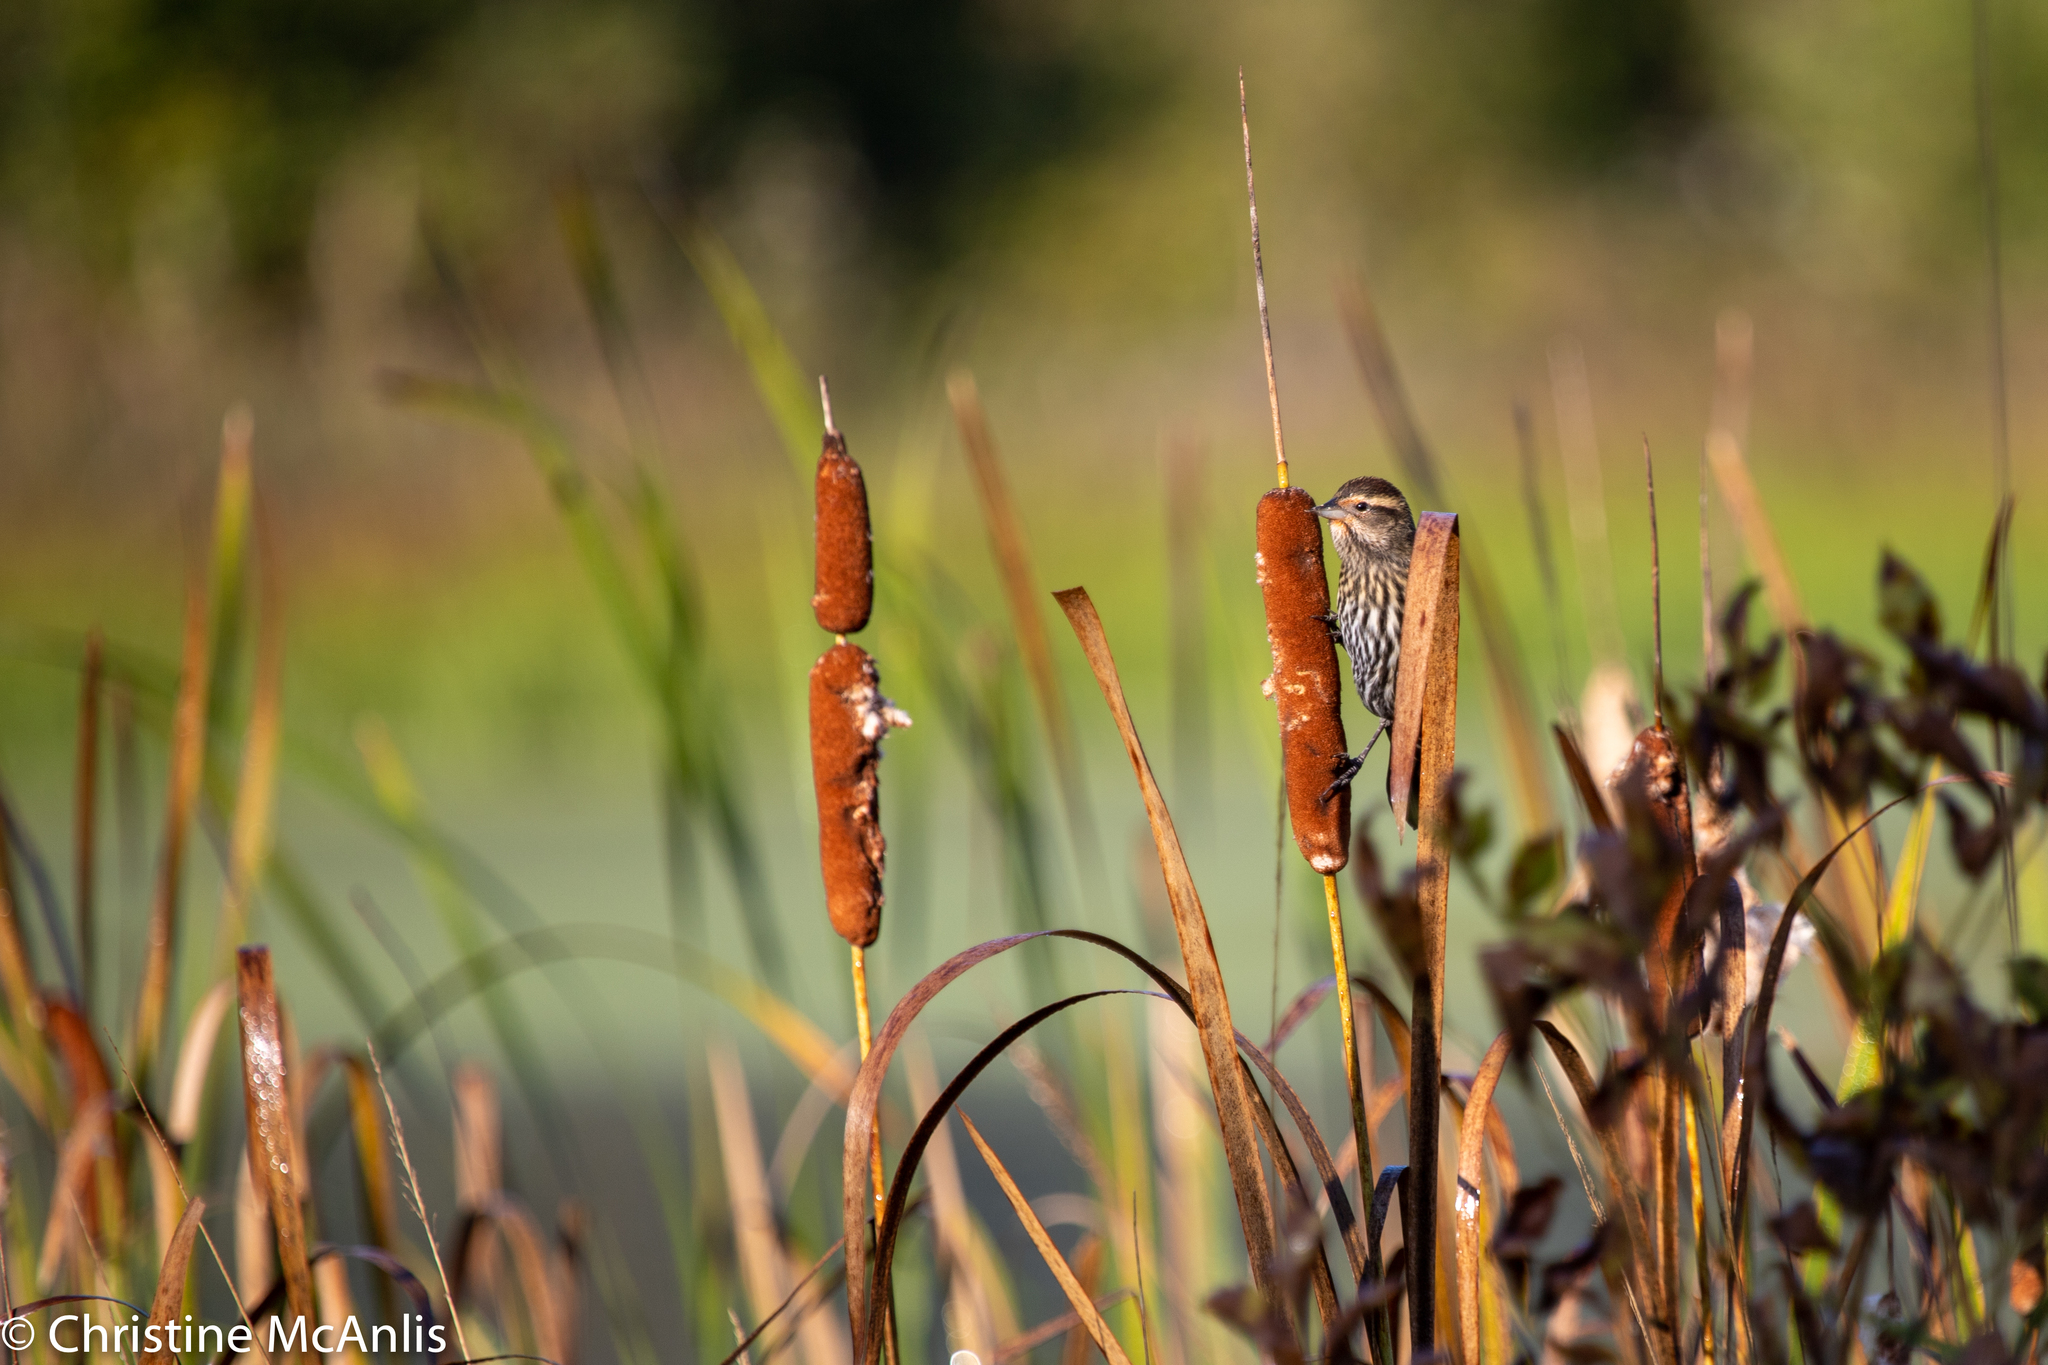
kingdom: Animalia
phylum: Chordata
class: Aves
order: Passeriformes
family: Icteridae
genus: Agelaius
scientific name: Agelaius phoeniceus
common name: Red-winged blackbird
